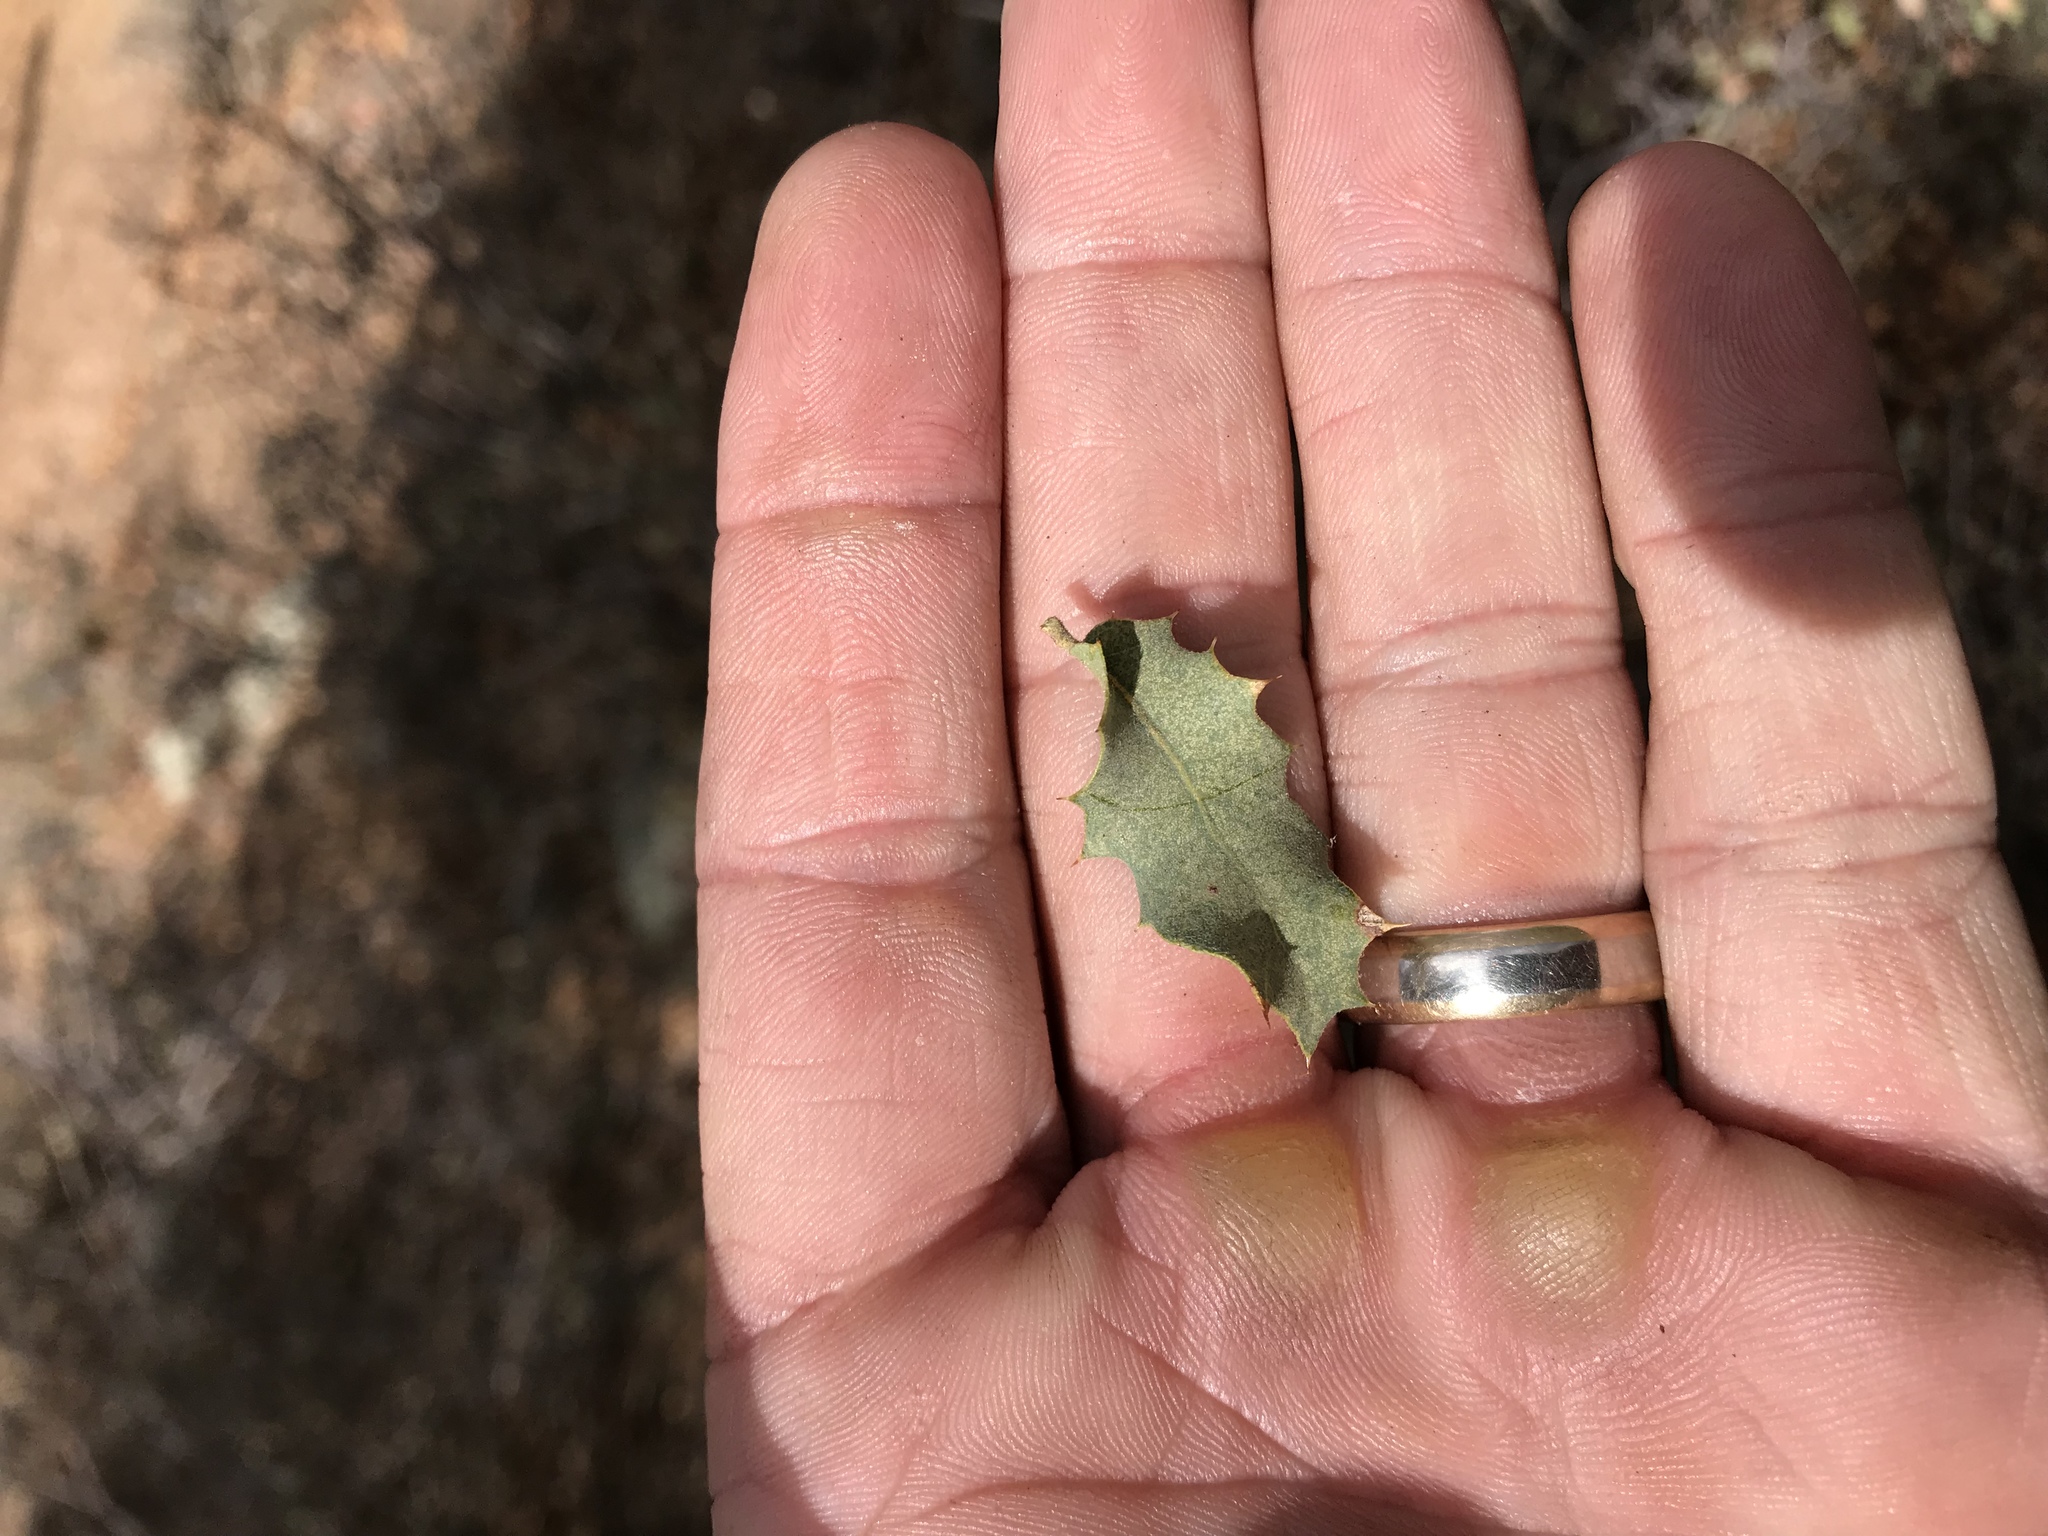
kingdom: Plantae
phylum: Tracheophyta
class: Magnoliopsida
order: Fagales
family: Fagaceae
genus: Quercus
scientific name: Quercus turbinella
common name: Sonoran scrub oak
